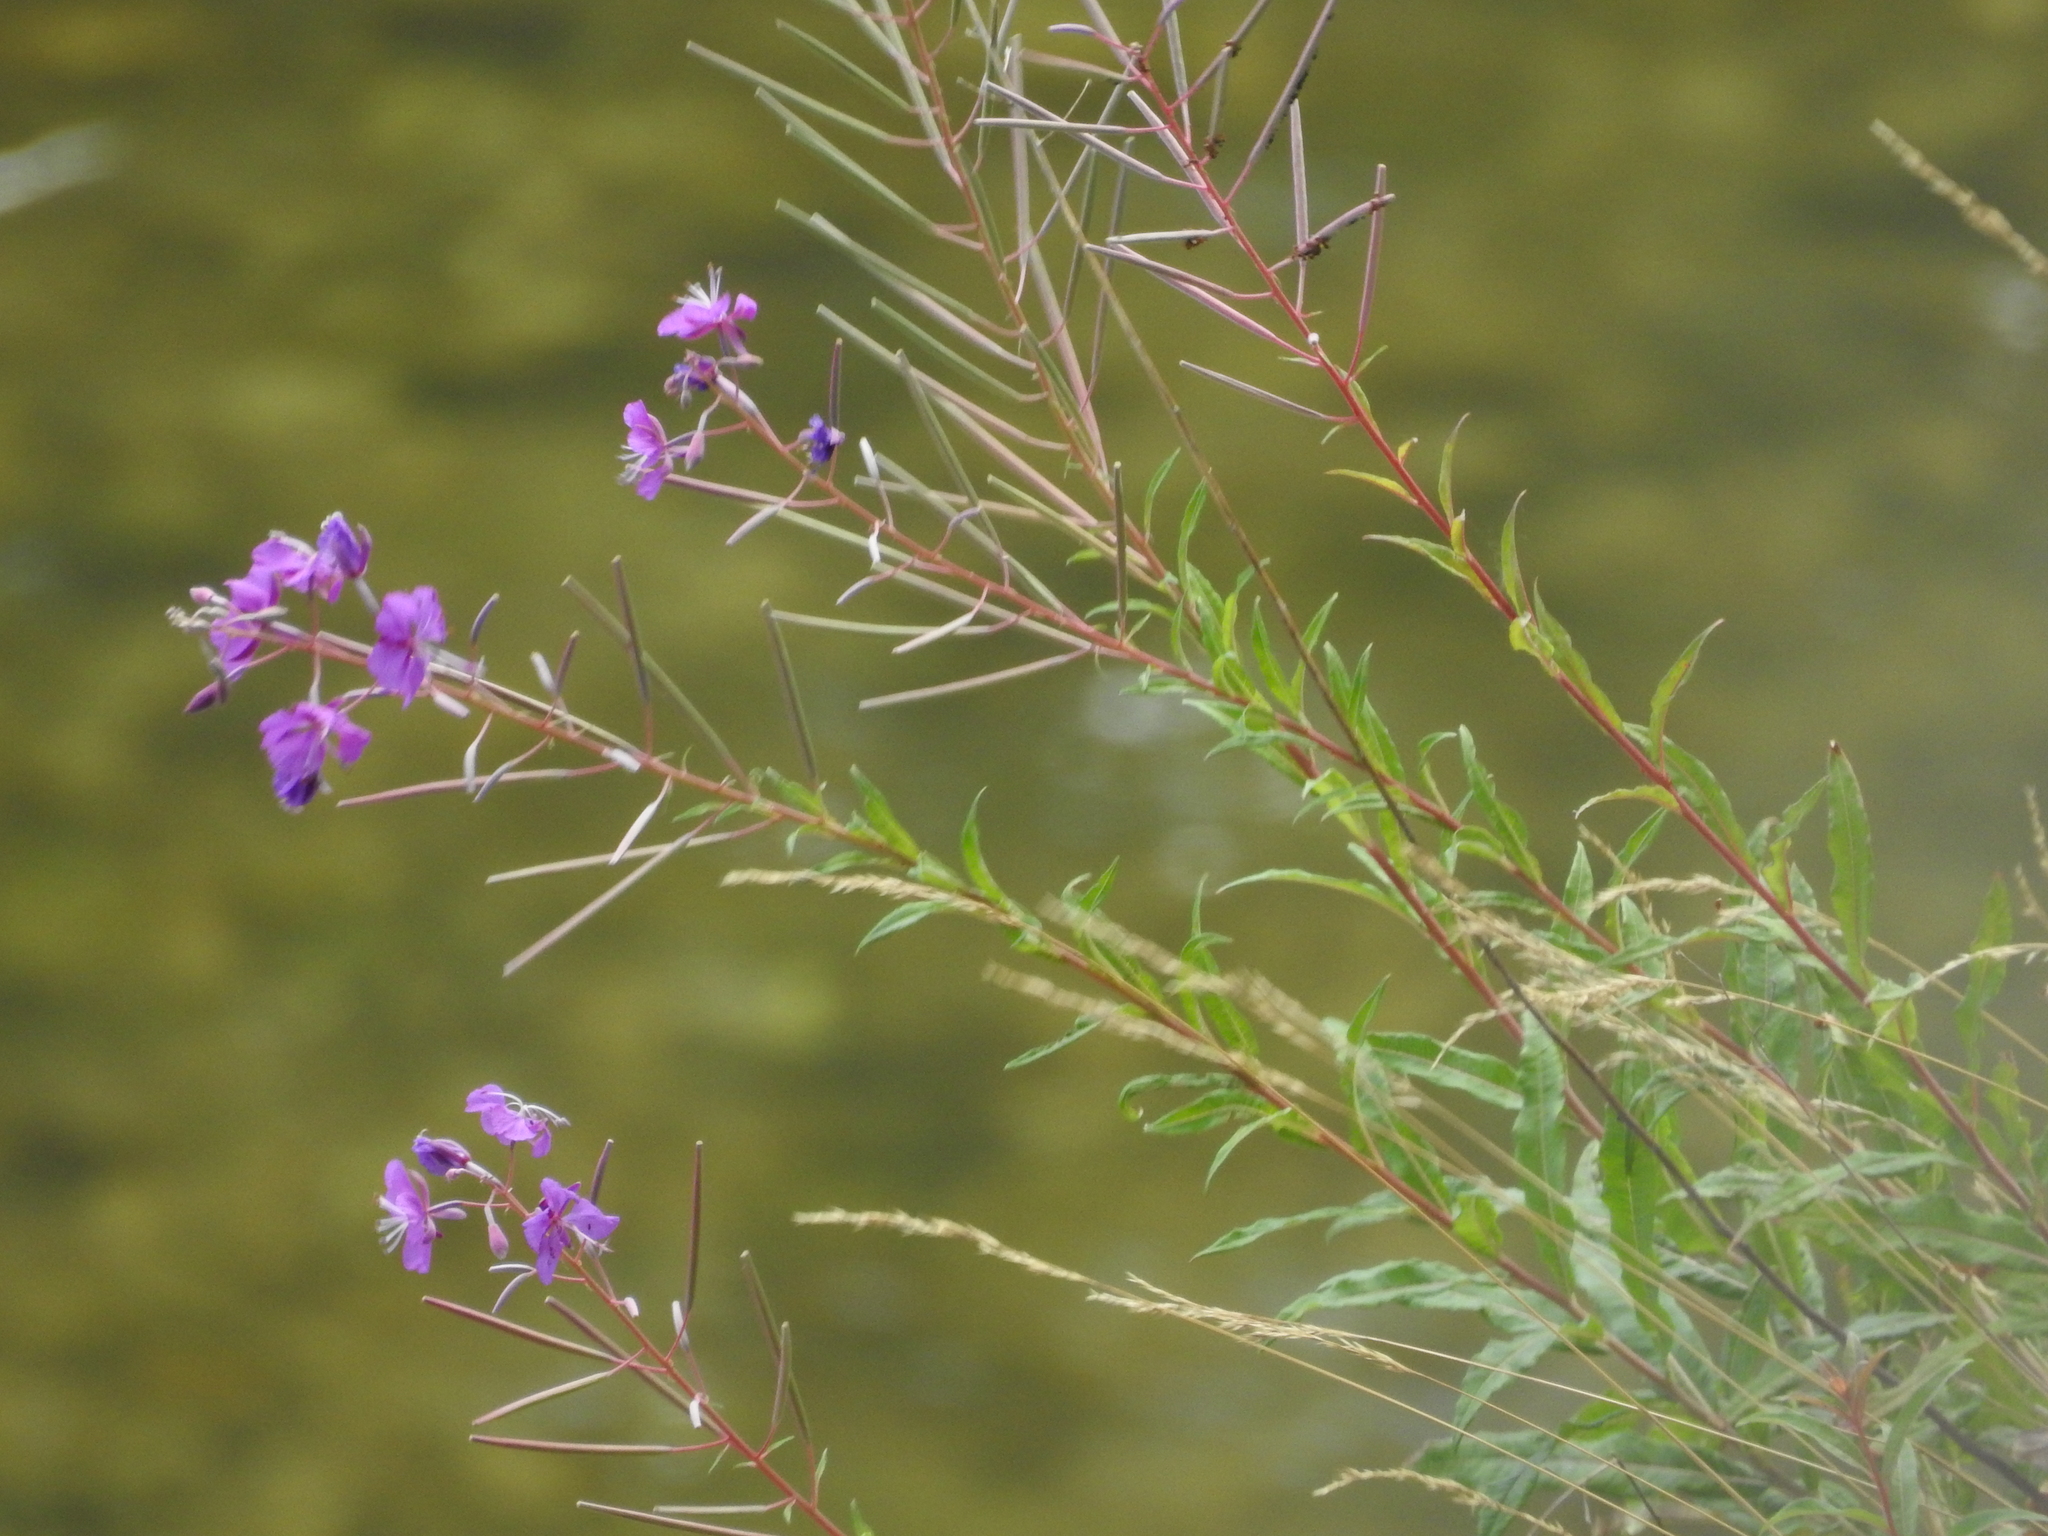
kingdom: Plantae
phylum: Tracheophyta
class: Magnoliopsida
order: Myrtales
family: Onagraceae
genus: Chamaenerion
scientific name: Chamaenerion angustifolium
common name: Fireweed
